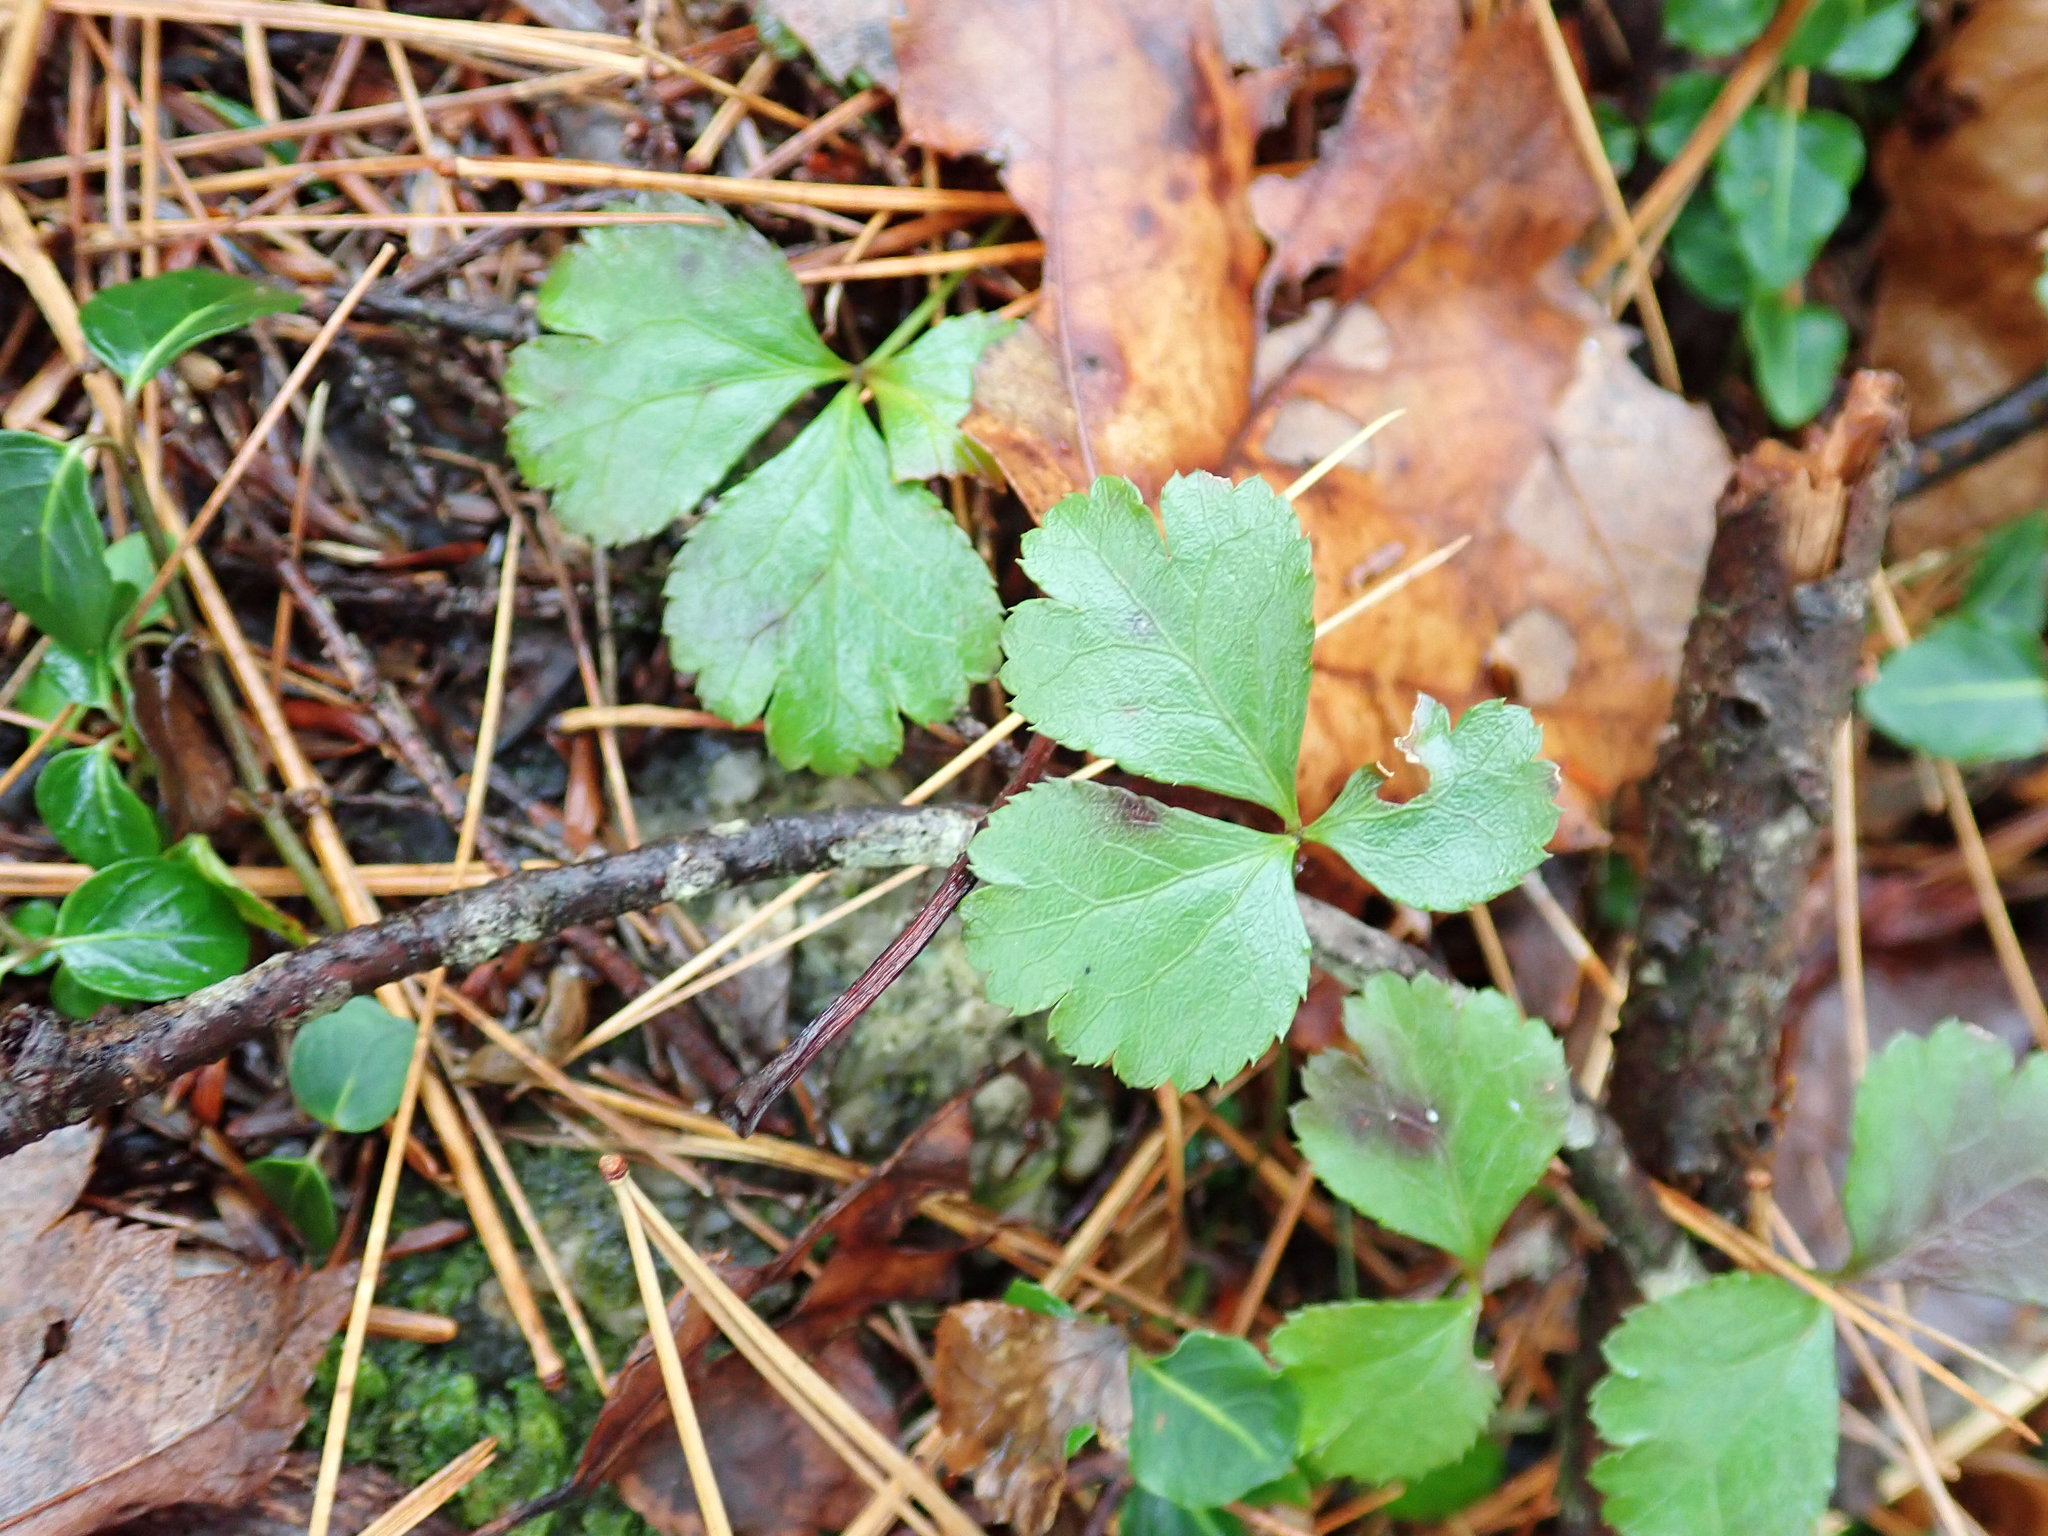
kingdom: Plantae
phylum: Tracheophyta
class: Magnoliopsida
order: Ranunculales
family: Ranunculaceae
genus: Coptis
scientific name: Coptis trifolia
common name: Canker-root
